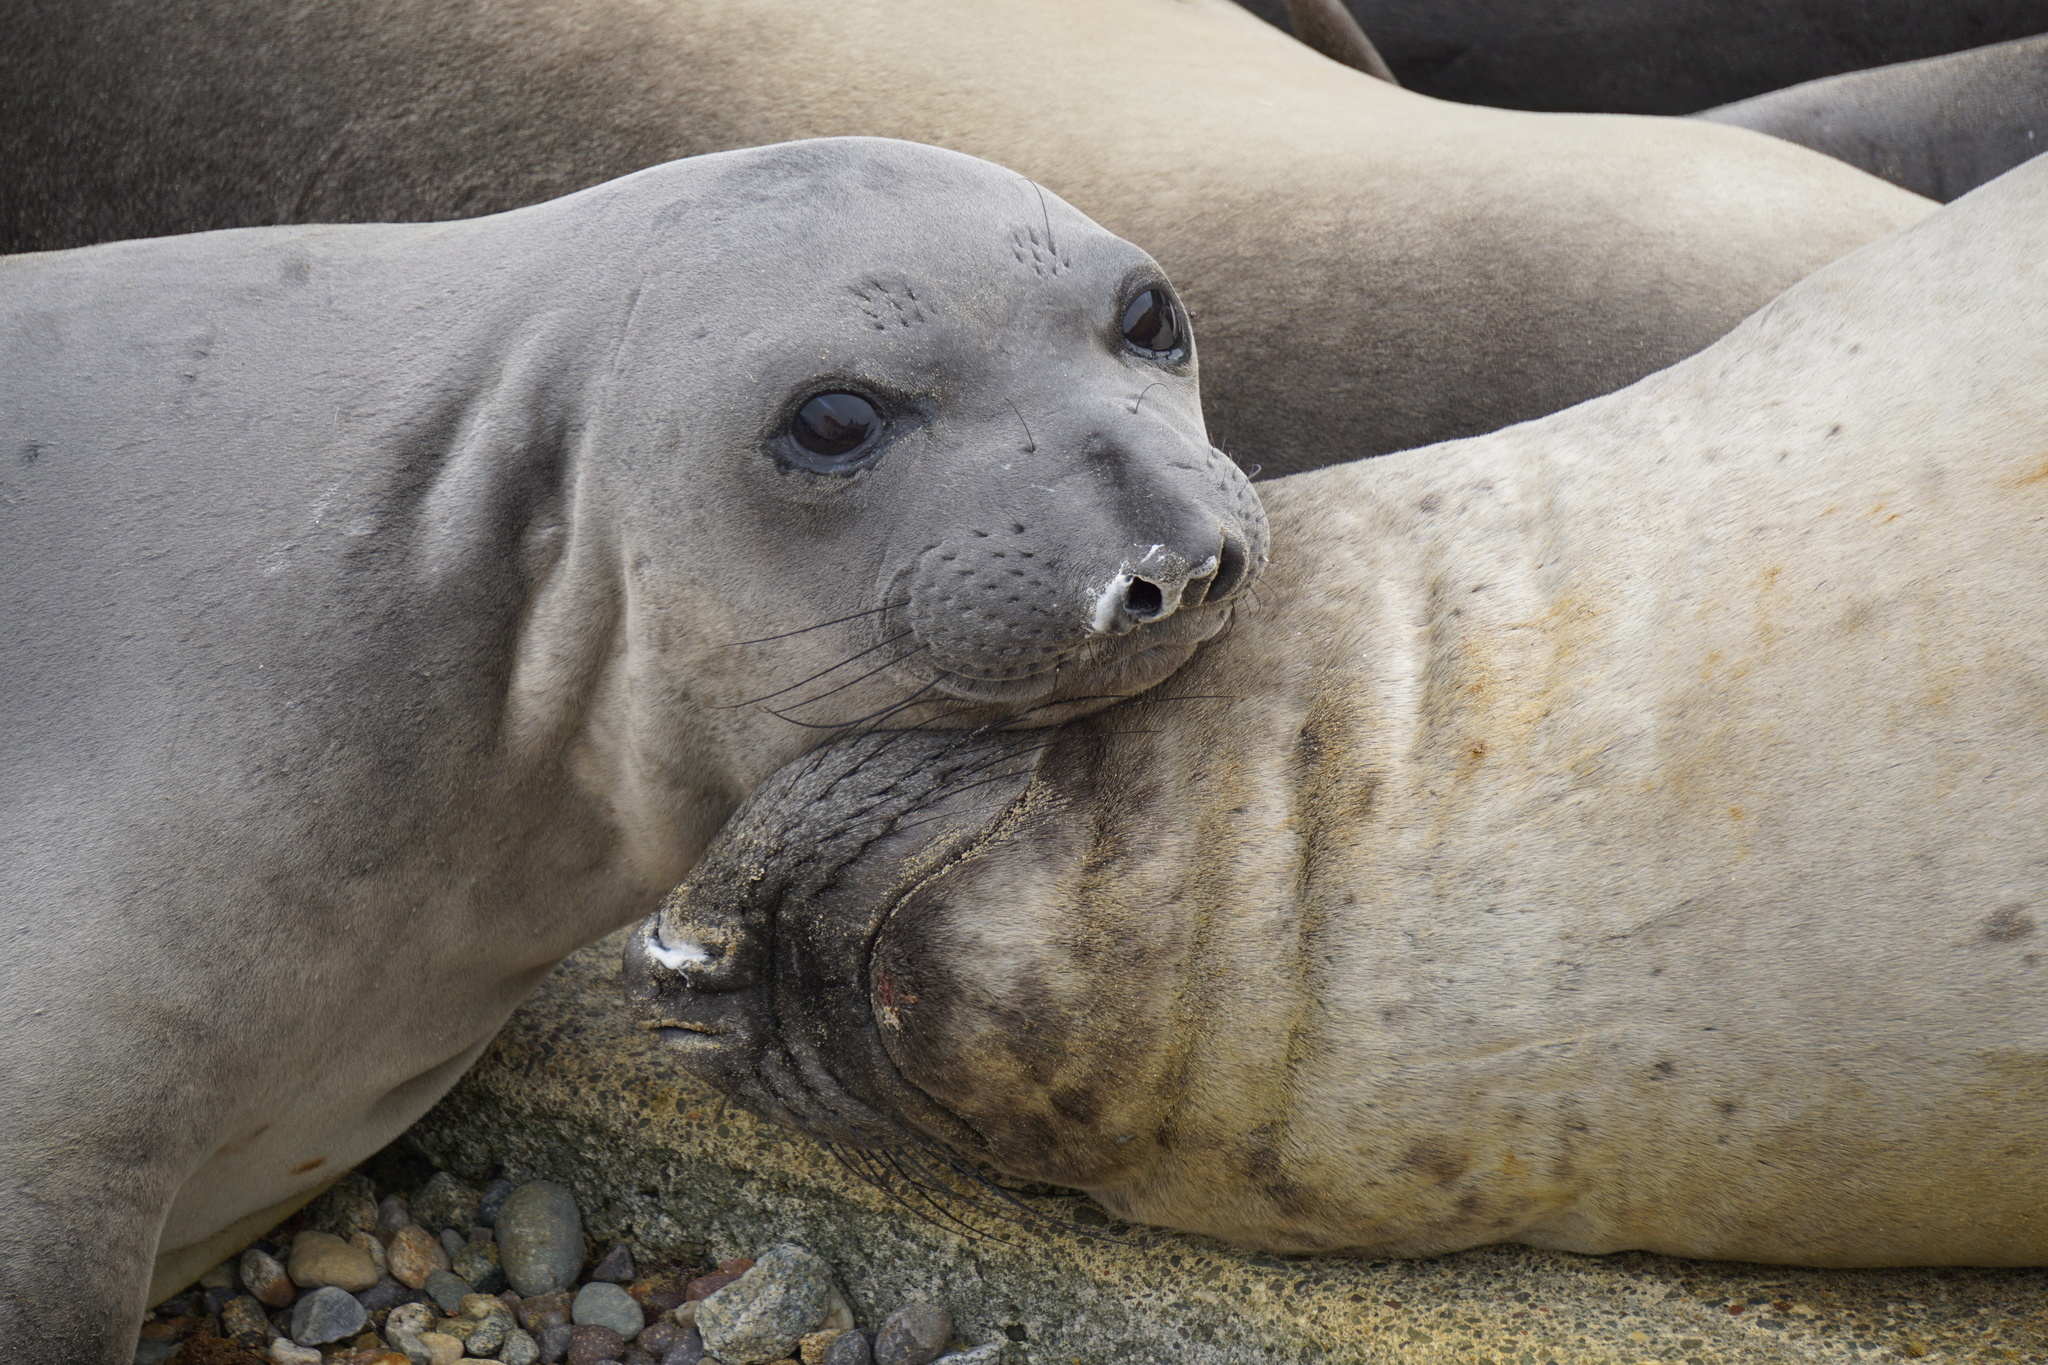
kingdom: Animalia
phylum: Chordata
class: Mammalia
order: Carnivora
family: Phocidae
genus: Mirounga
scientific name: Mirounga angustirostris
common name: Northern elephant seal
